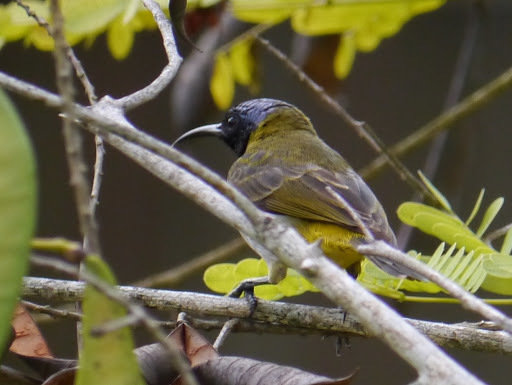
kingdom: Animalia
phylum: Chordata
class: Aves
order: Passeriformes
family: Nectariniidae
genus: Anabathmis
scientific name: Anabathmis reichenbachii
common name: Reichenbach's sunbird
